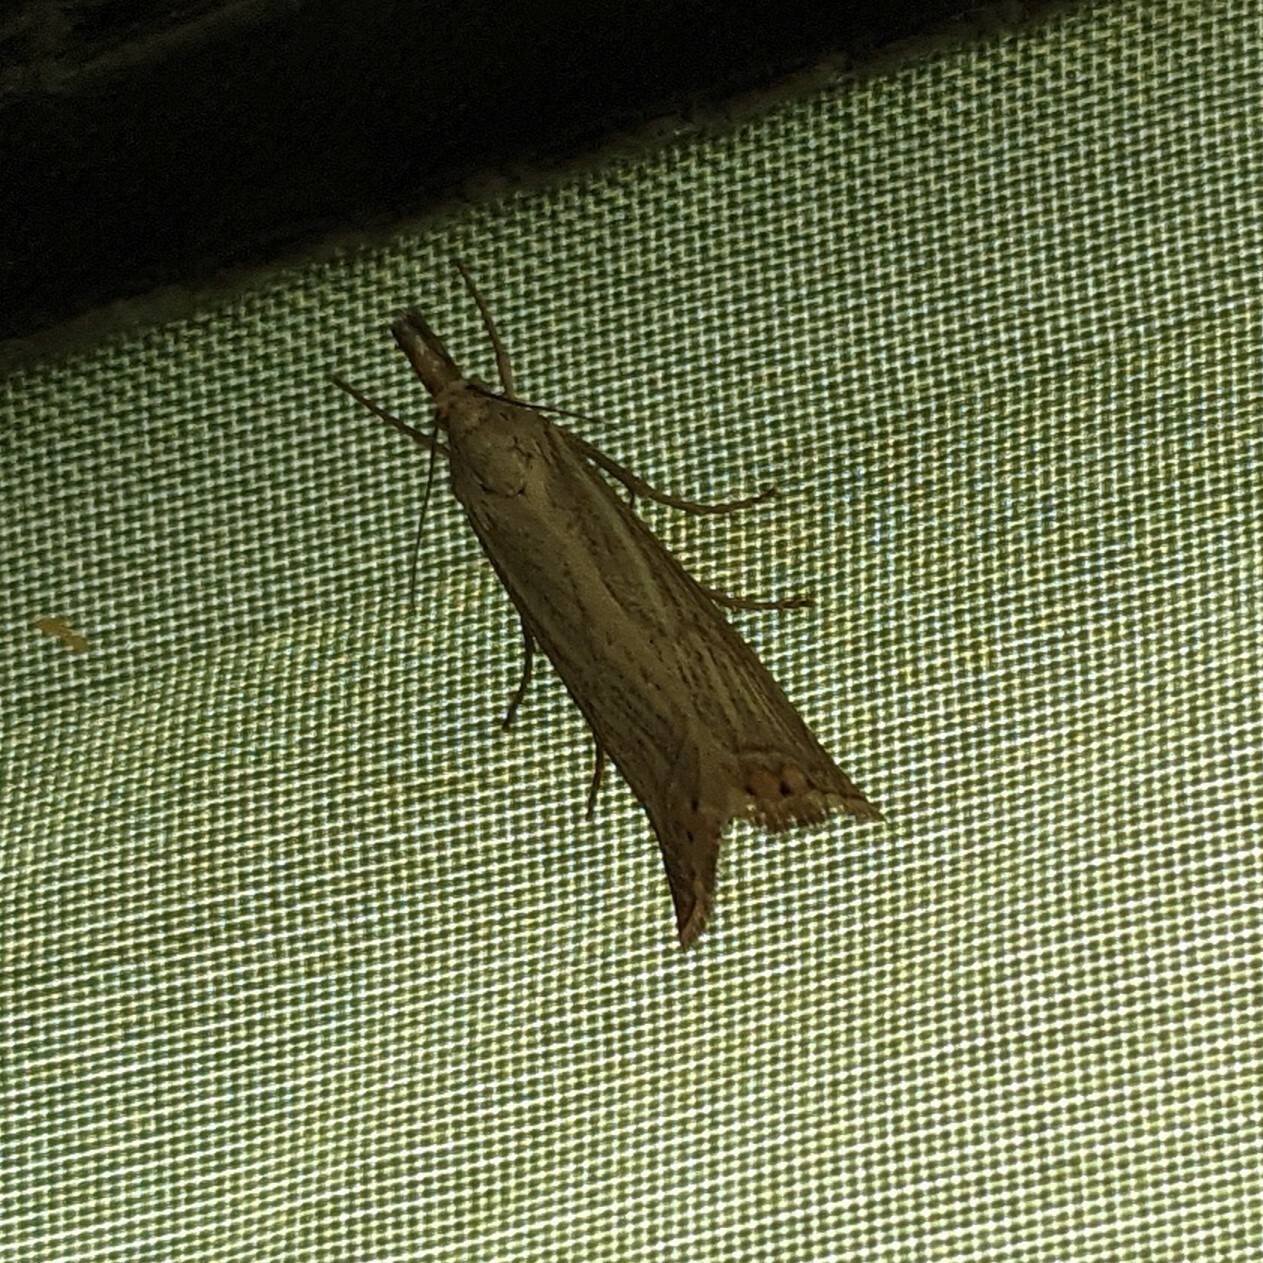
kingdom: Animalia
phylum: Arthropoda
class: Insecta
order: Lepidoptera
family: Crambidae
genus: Chrysoteuchia
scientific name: Chrysoteuchia culmella
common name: Garden grass-veneer
